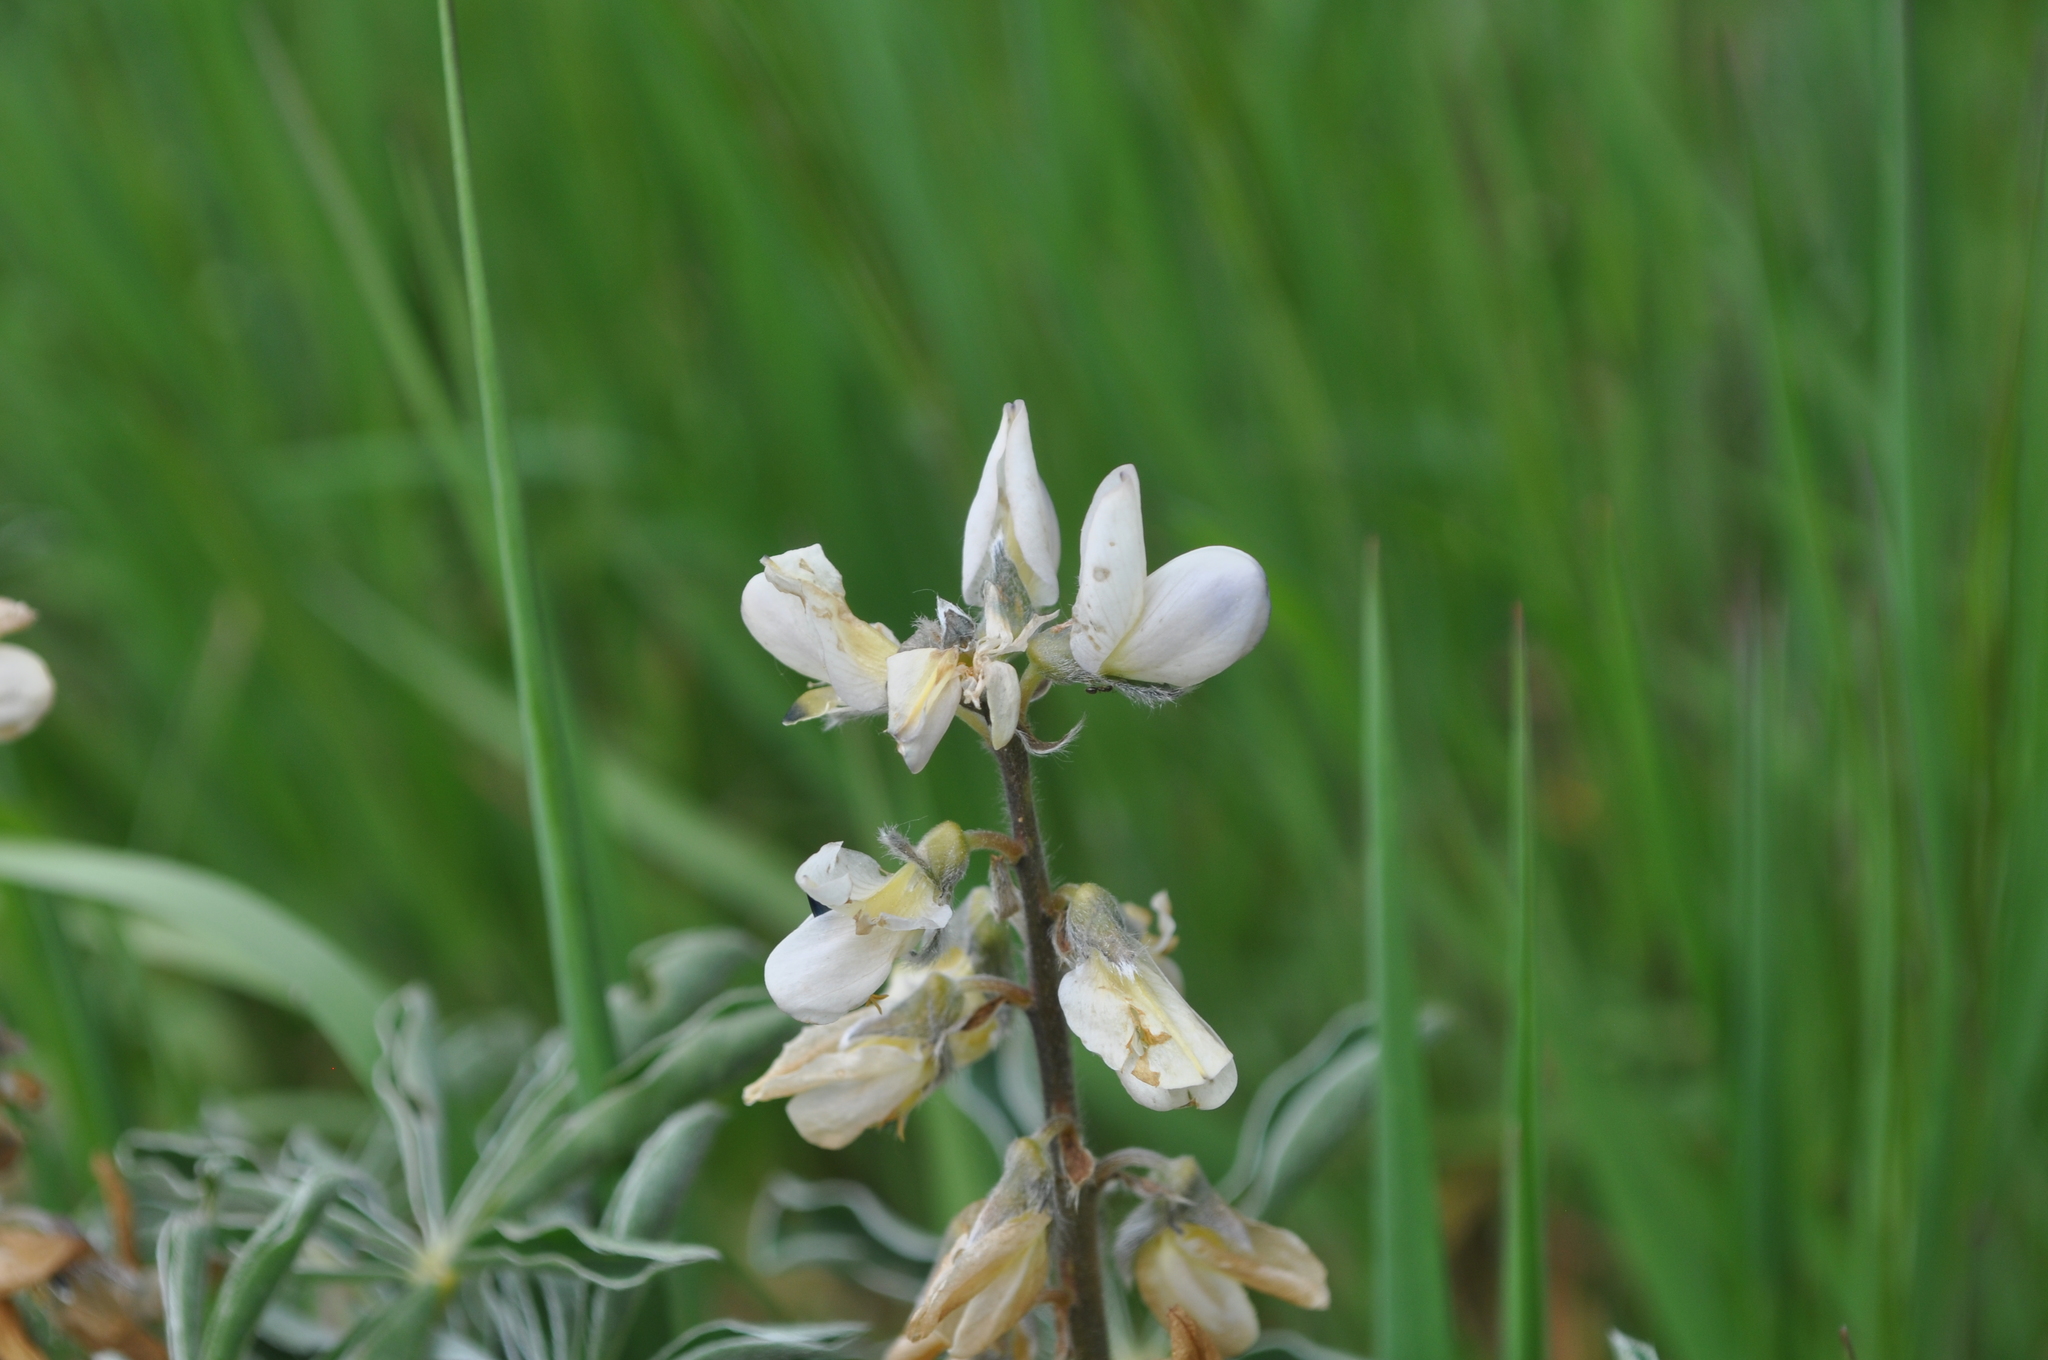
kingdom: Plantae
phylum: Tracheophyta
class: Magnoliopsida
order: Fabales
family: Fabaceae
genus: Lupinus
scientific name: Lupinus albus
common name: White lupin
